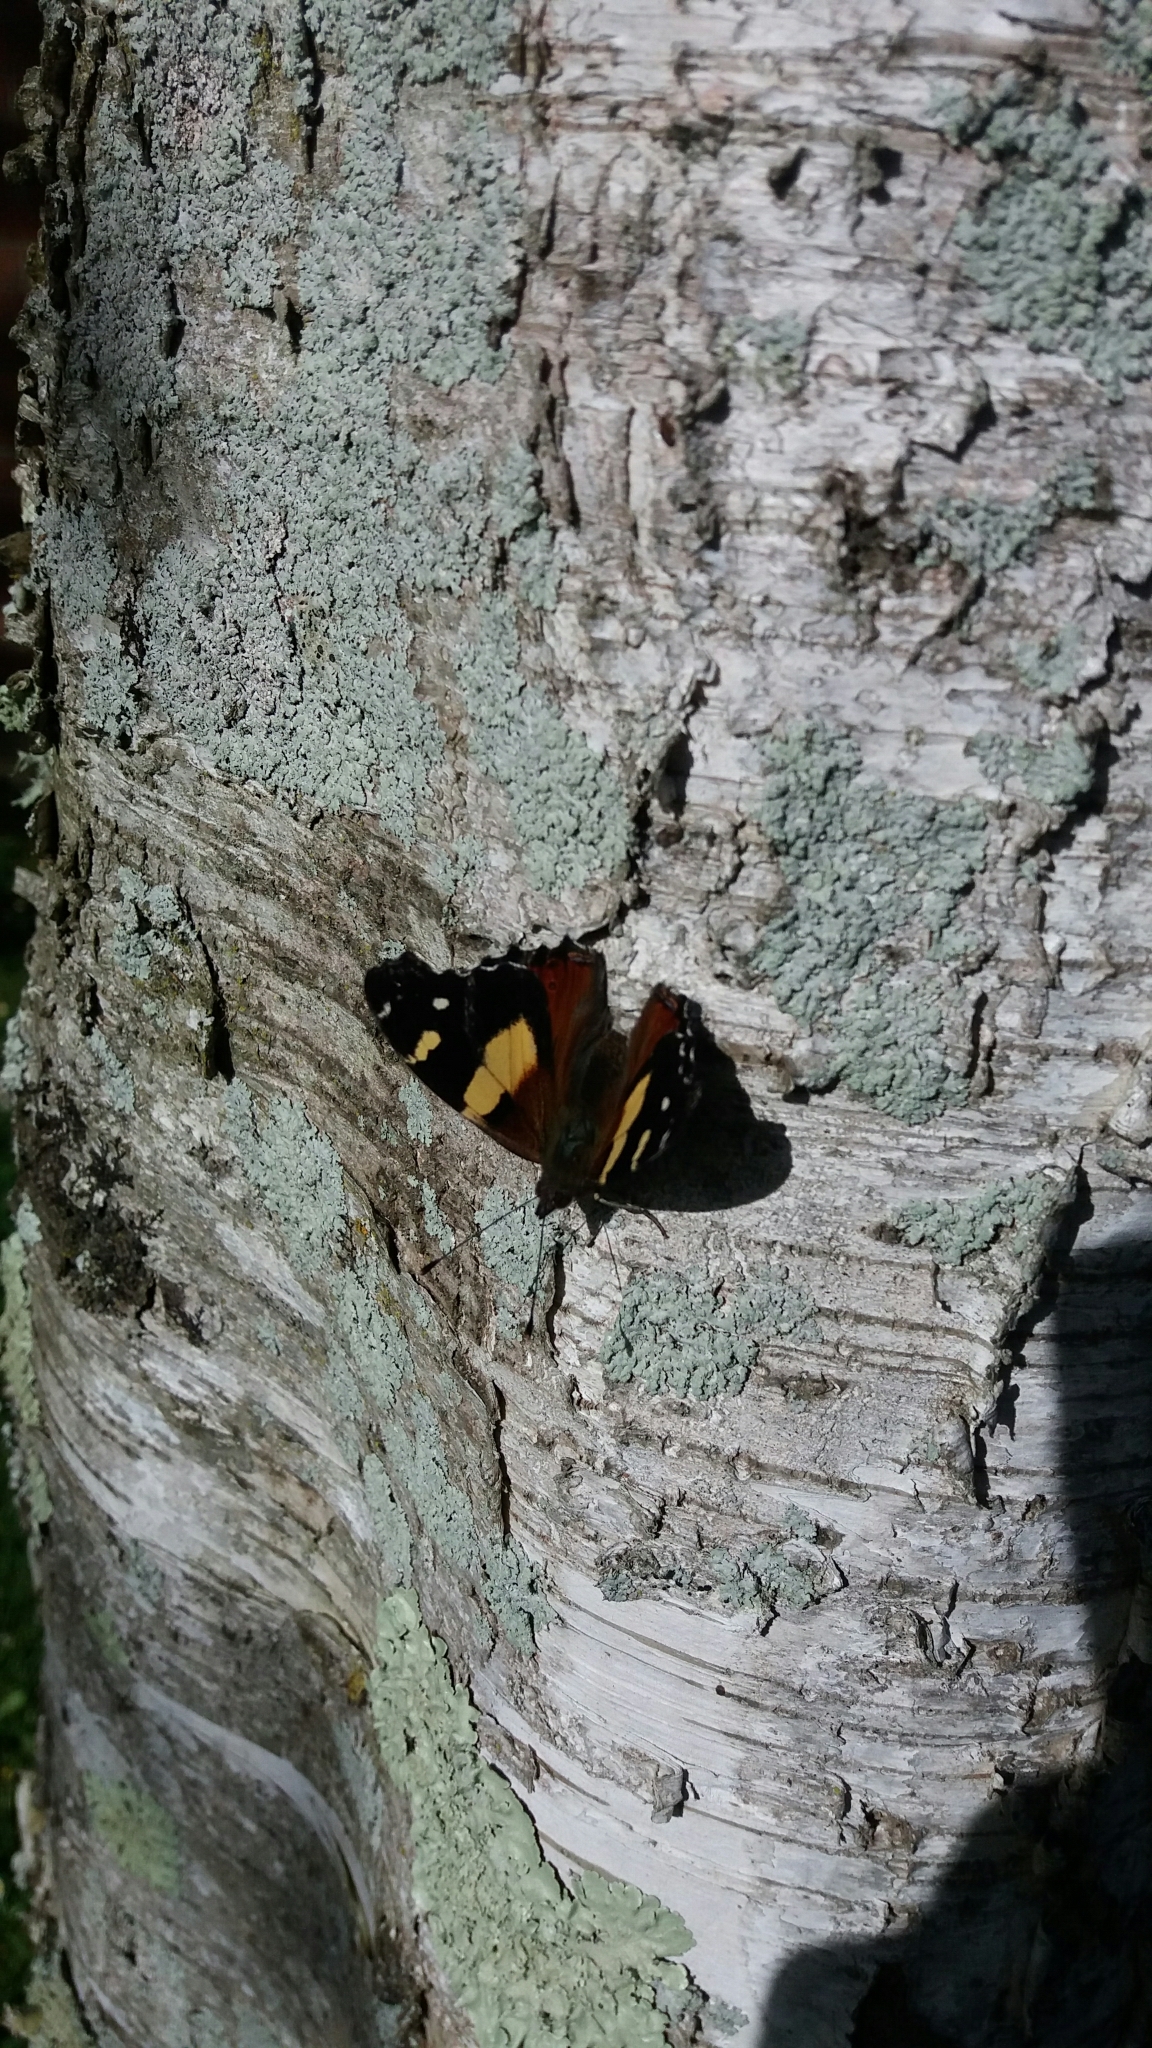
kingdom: Animalia
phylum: Arthropoda
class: Insecta
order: Lepidoptera
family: Nymphalidae
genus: Vanessa
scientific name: Vanessa itea
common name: Yellow admiral
